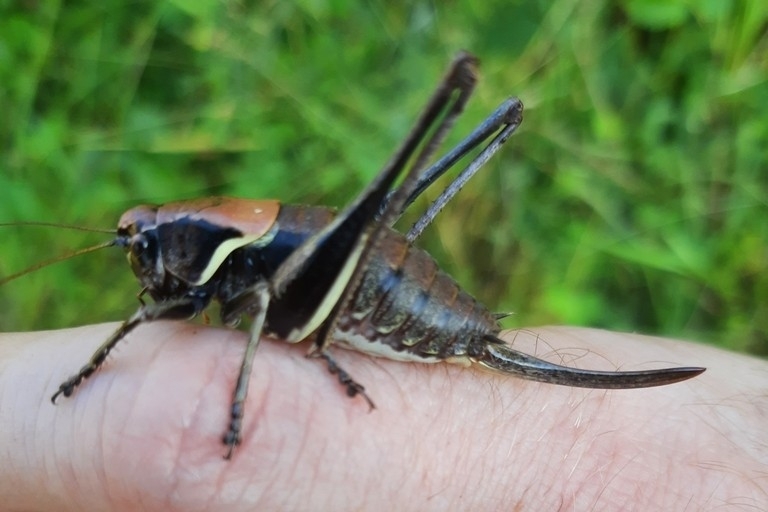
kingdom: Animalia
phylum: Arthropoda
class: Insecta
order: Orthoptera
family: Tettigoniidae
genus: Pholidoptera
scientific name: Pholidoptera aptera
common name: Alpine dark bush-cricket
